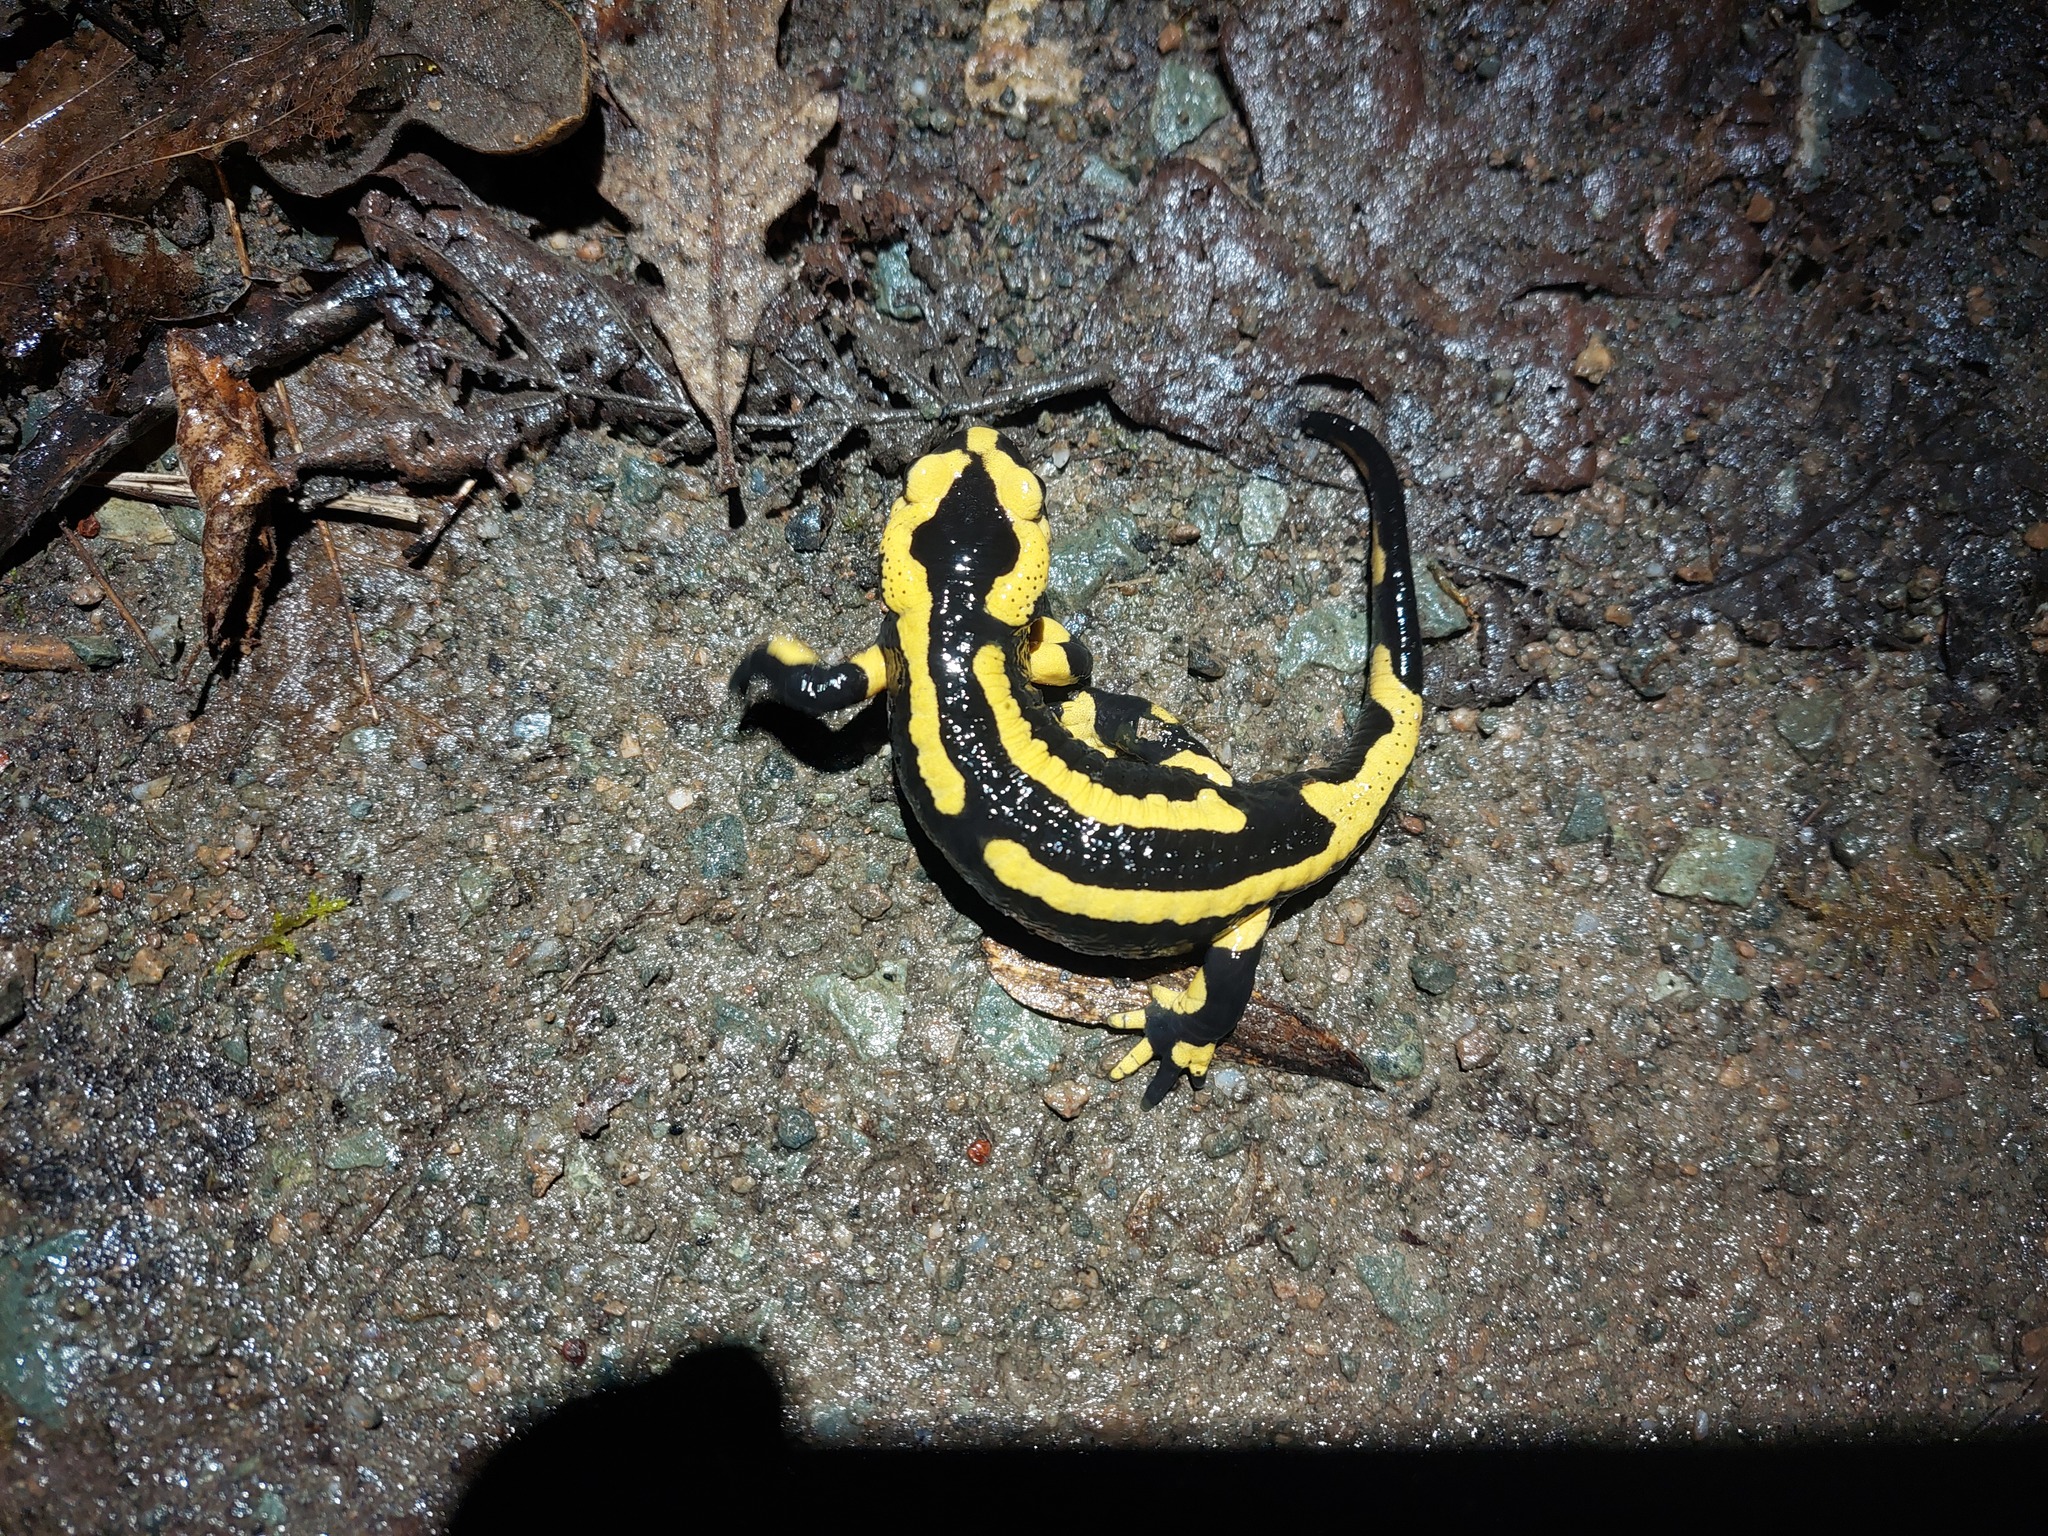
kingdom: Animalia
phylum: Chordata
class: Amphibia
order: Caudata
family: Salamandridae
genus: Salamandra
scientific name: Salamandra salamandra
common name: Fire salamander
